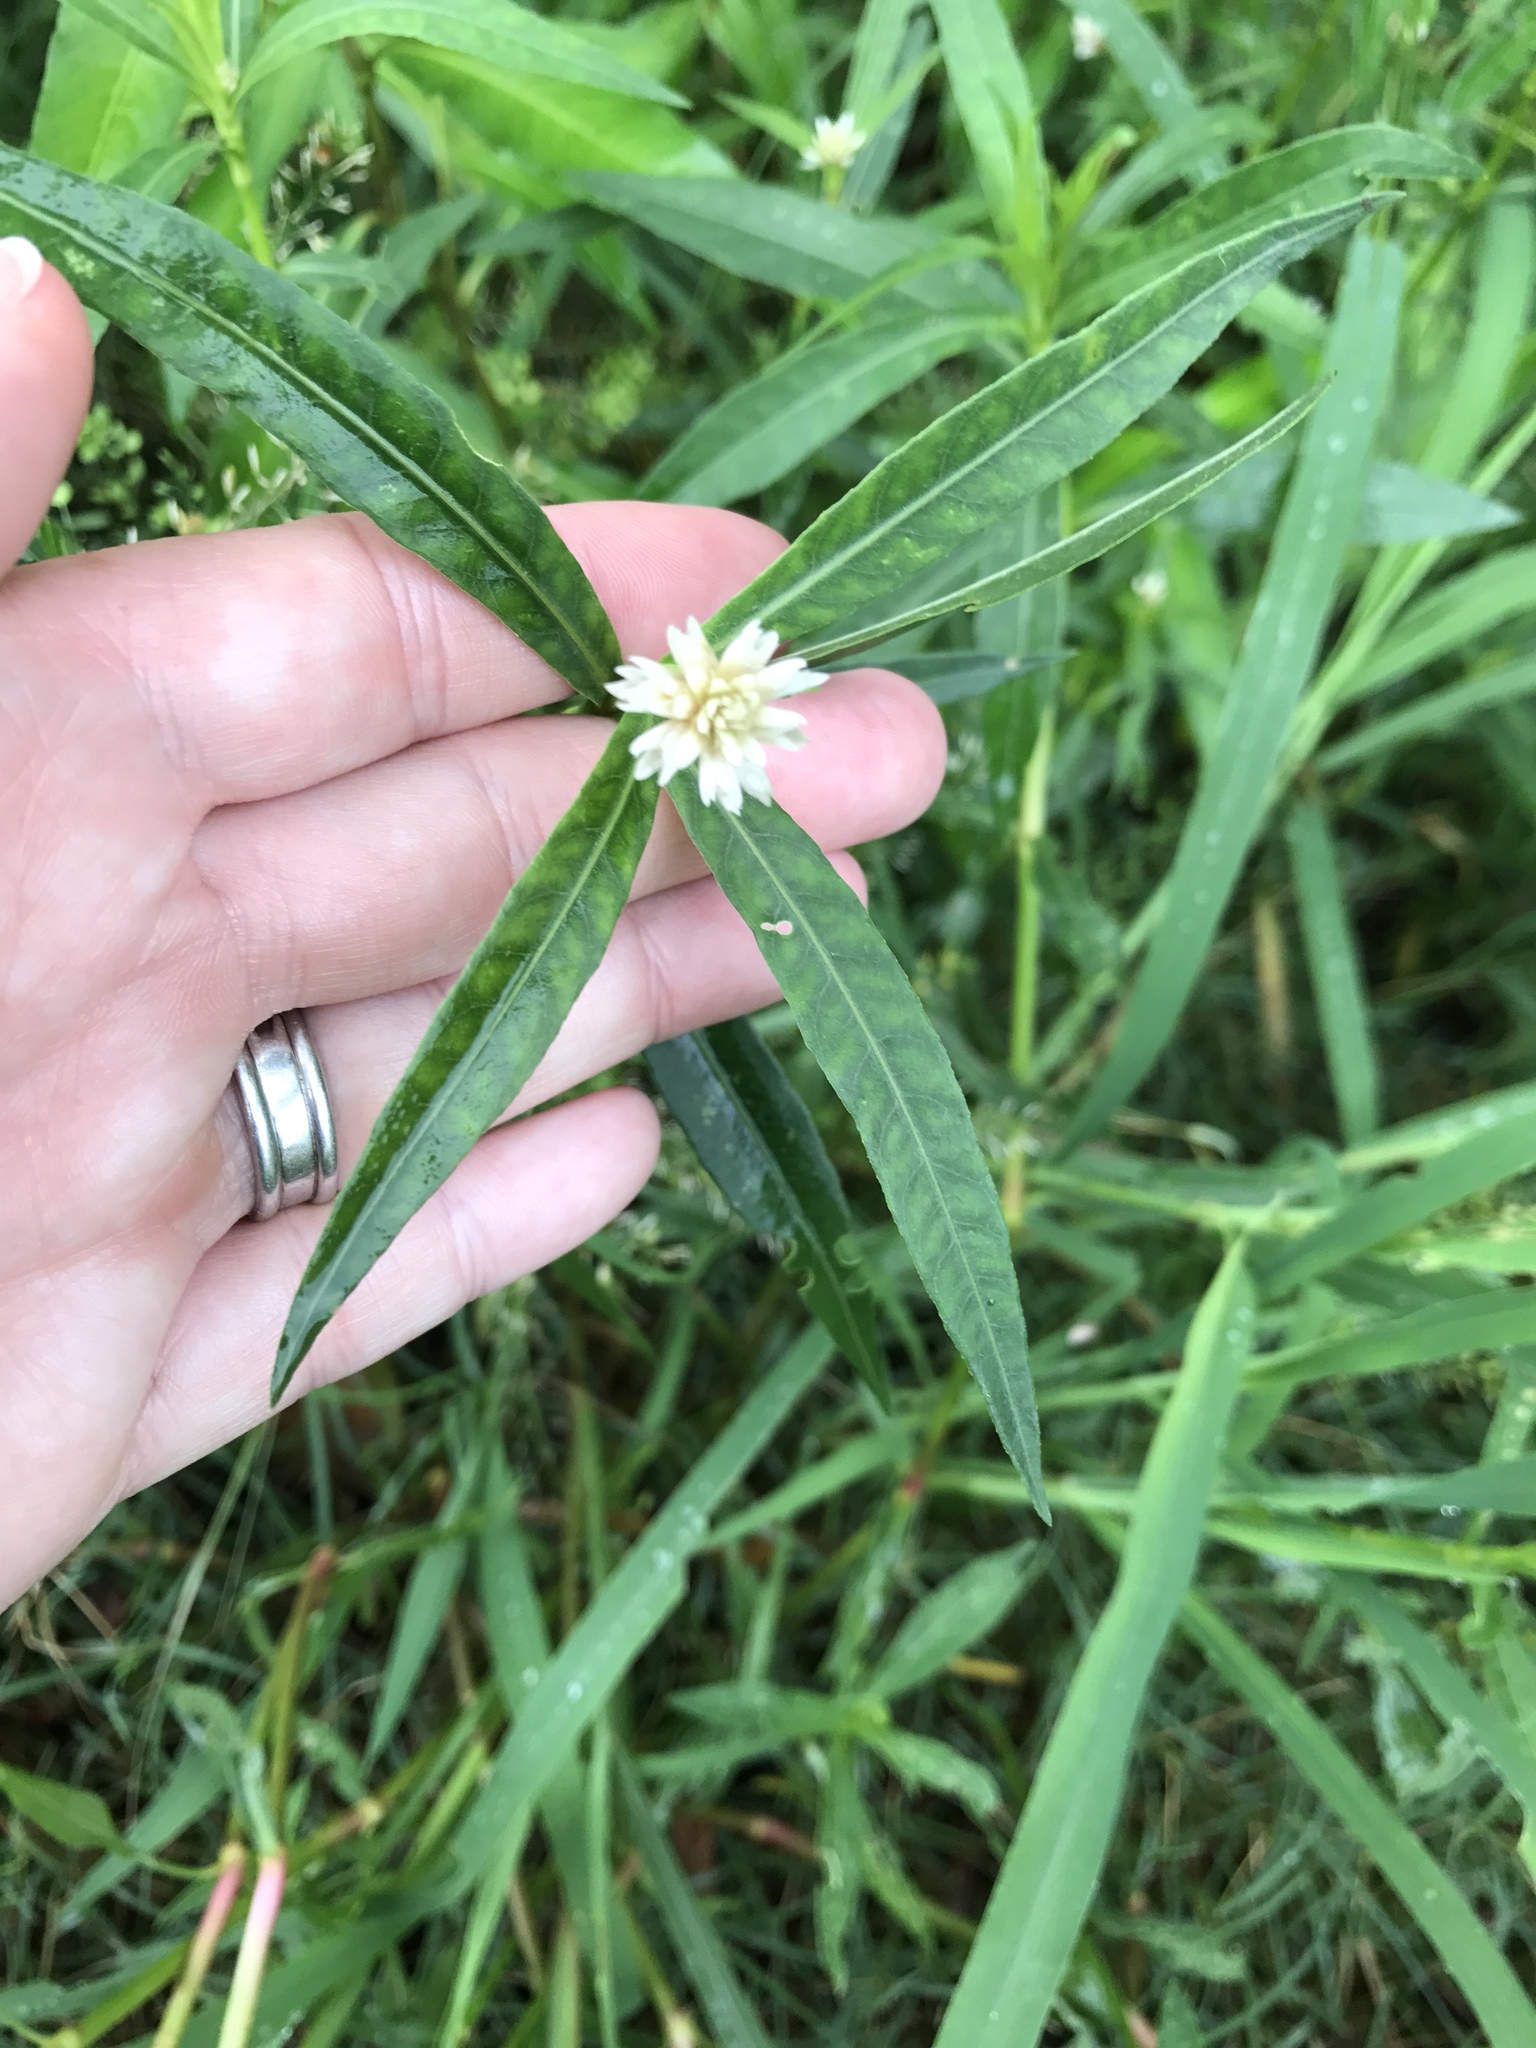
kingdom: Plantae
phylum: Tracheophyta
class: Magnoliopsida
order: Caryophyllales
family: Amaranthaceae
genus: Alternanthera
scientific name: Alternanthera philoxeroides
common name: Alligatorweed
